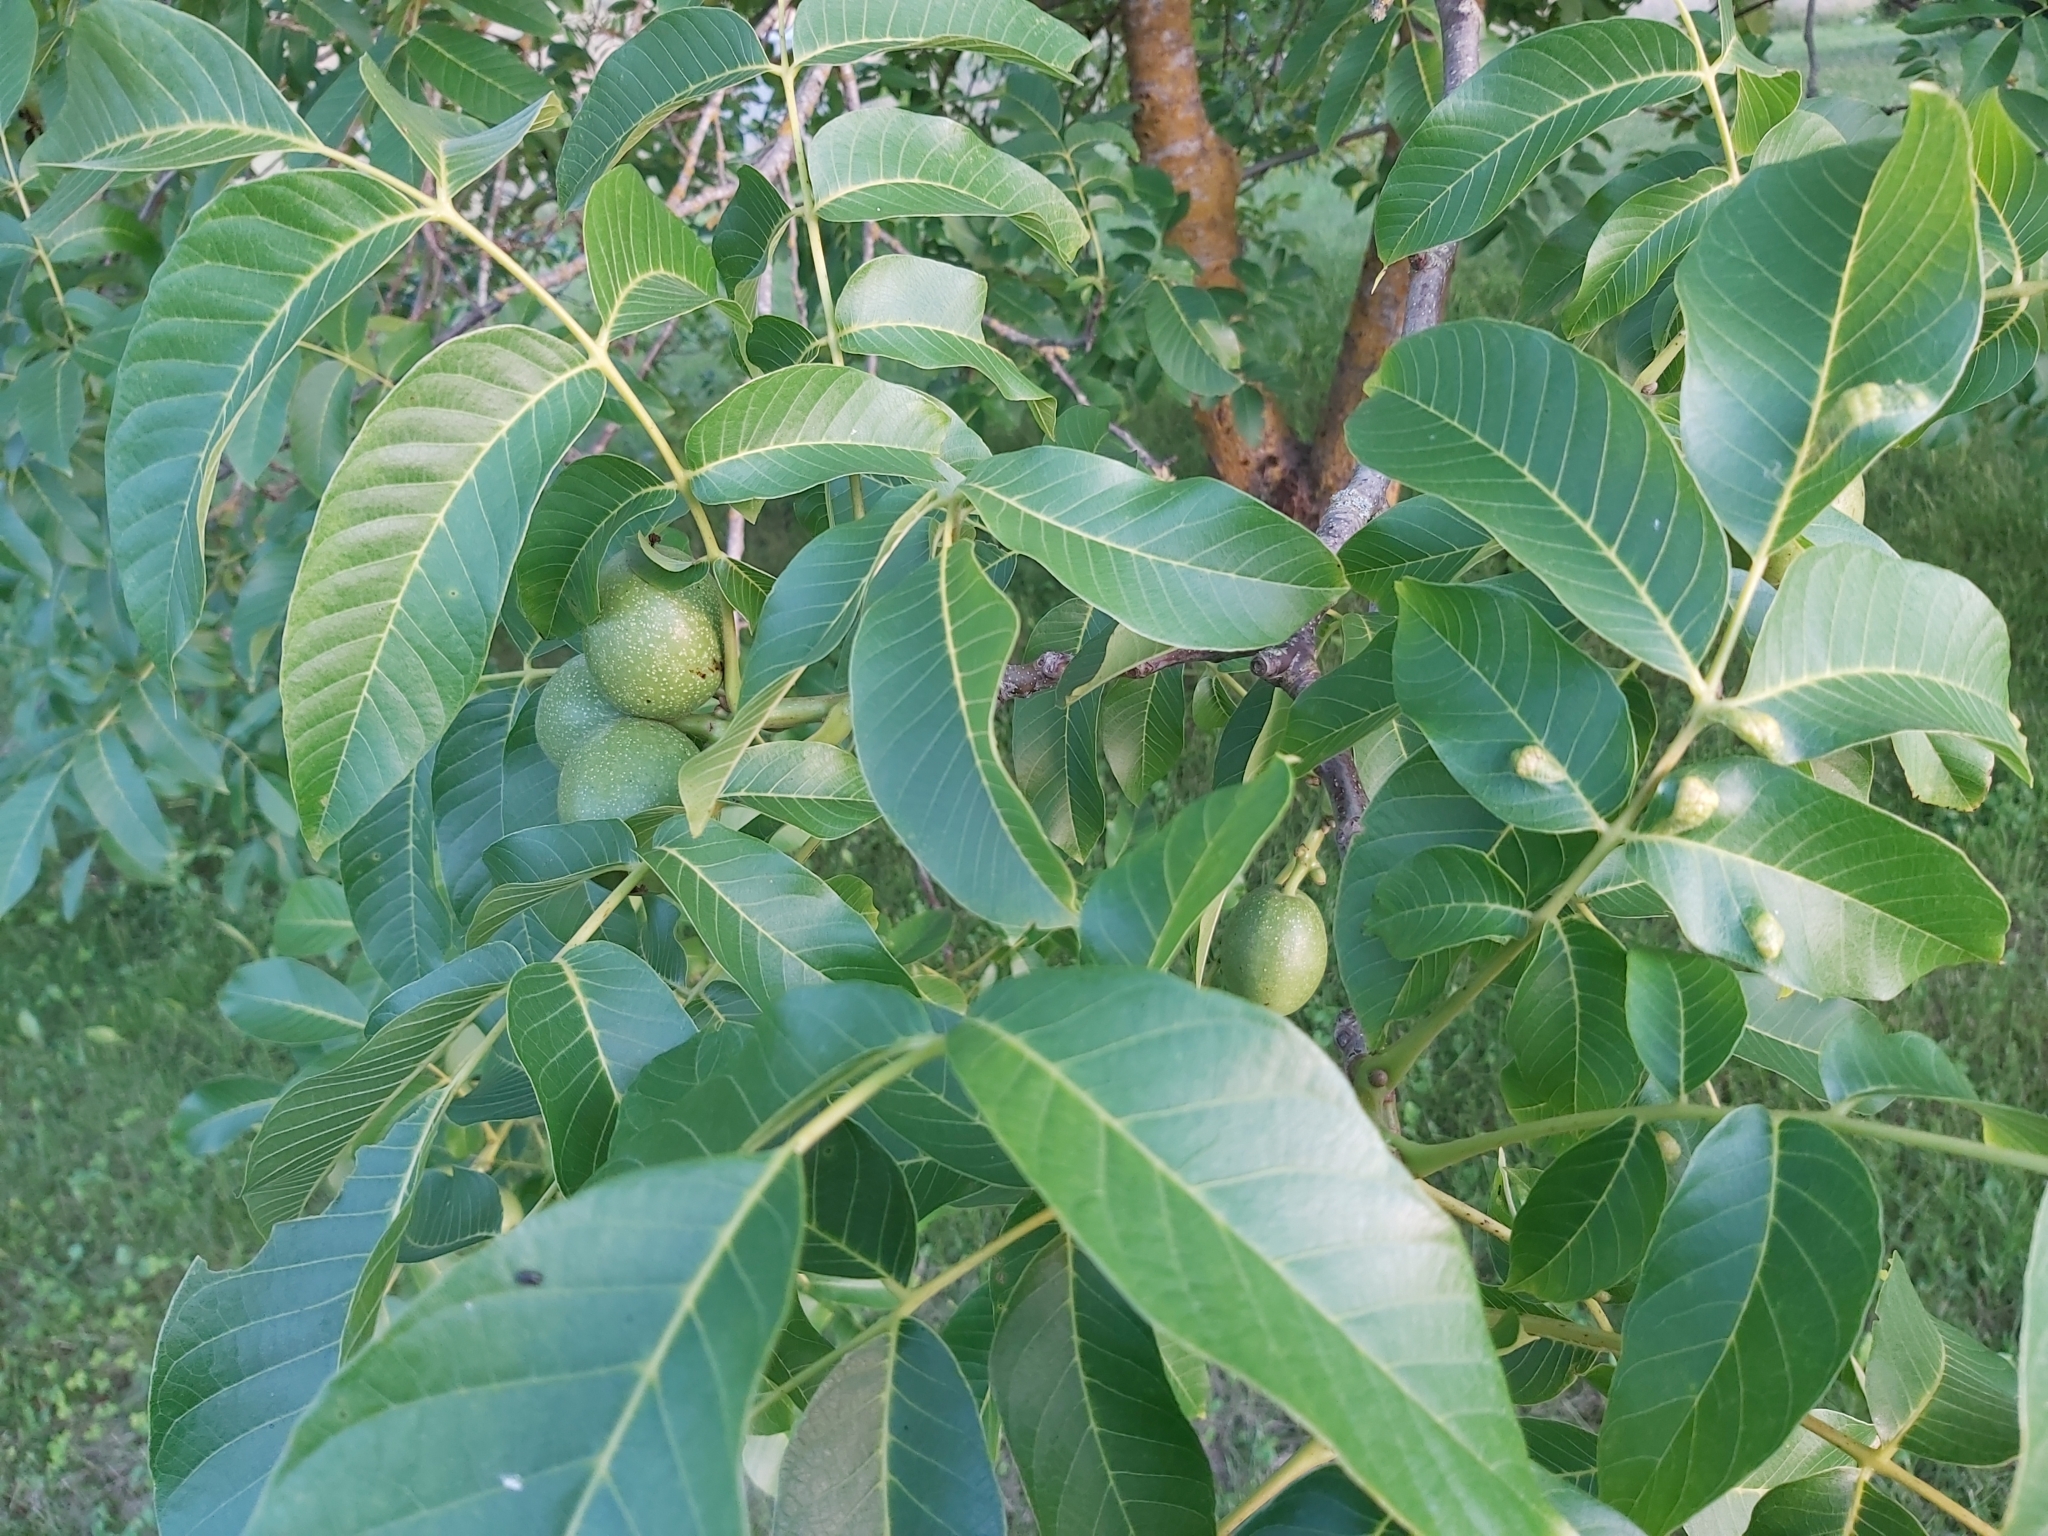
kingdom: Animalia
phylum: Arthropoda
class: Arachnida
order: Trombidiformes
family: Eriophyidae
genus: Aceria
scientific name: Aceria erinea
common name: Persian walnut erineum mite
